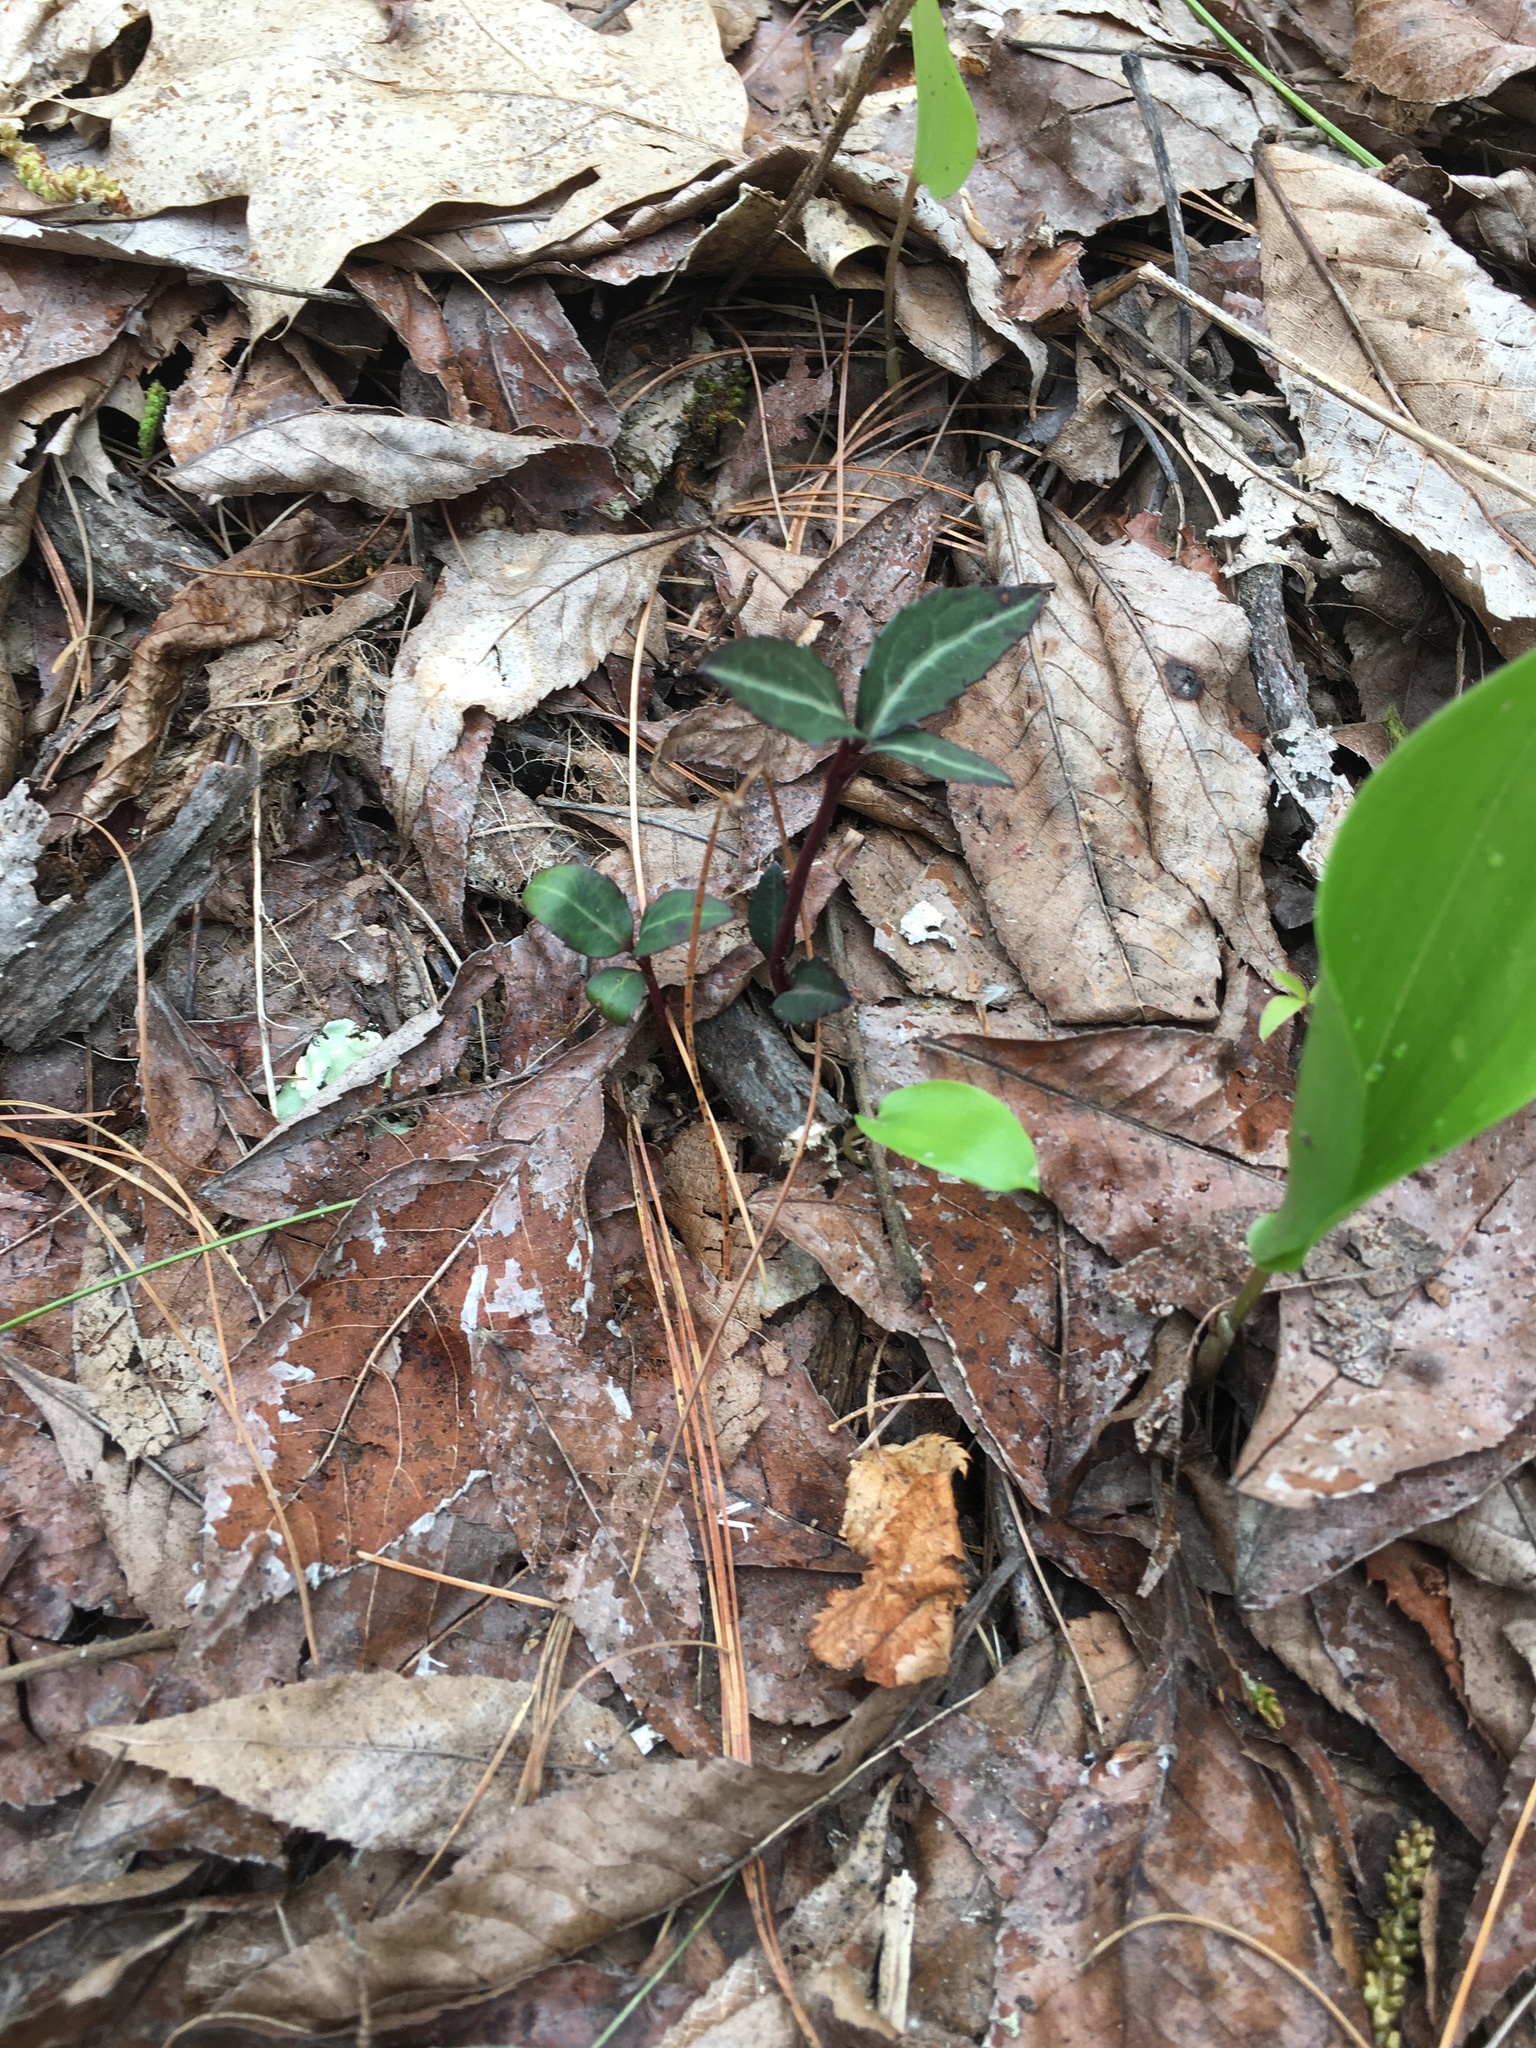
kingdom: Plantae
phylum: Tracheophyta
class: Magnoliopsida
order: Ericales
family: Ericaceae
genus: Chimaphila
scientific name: Chimaphila maculata
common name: Spotted pipsissewa
